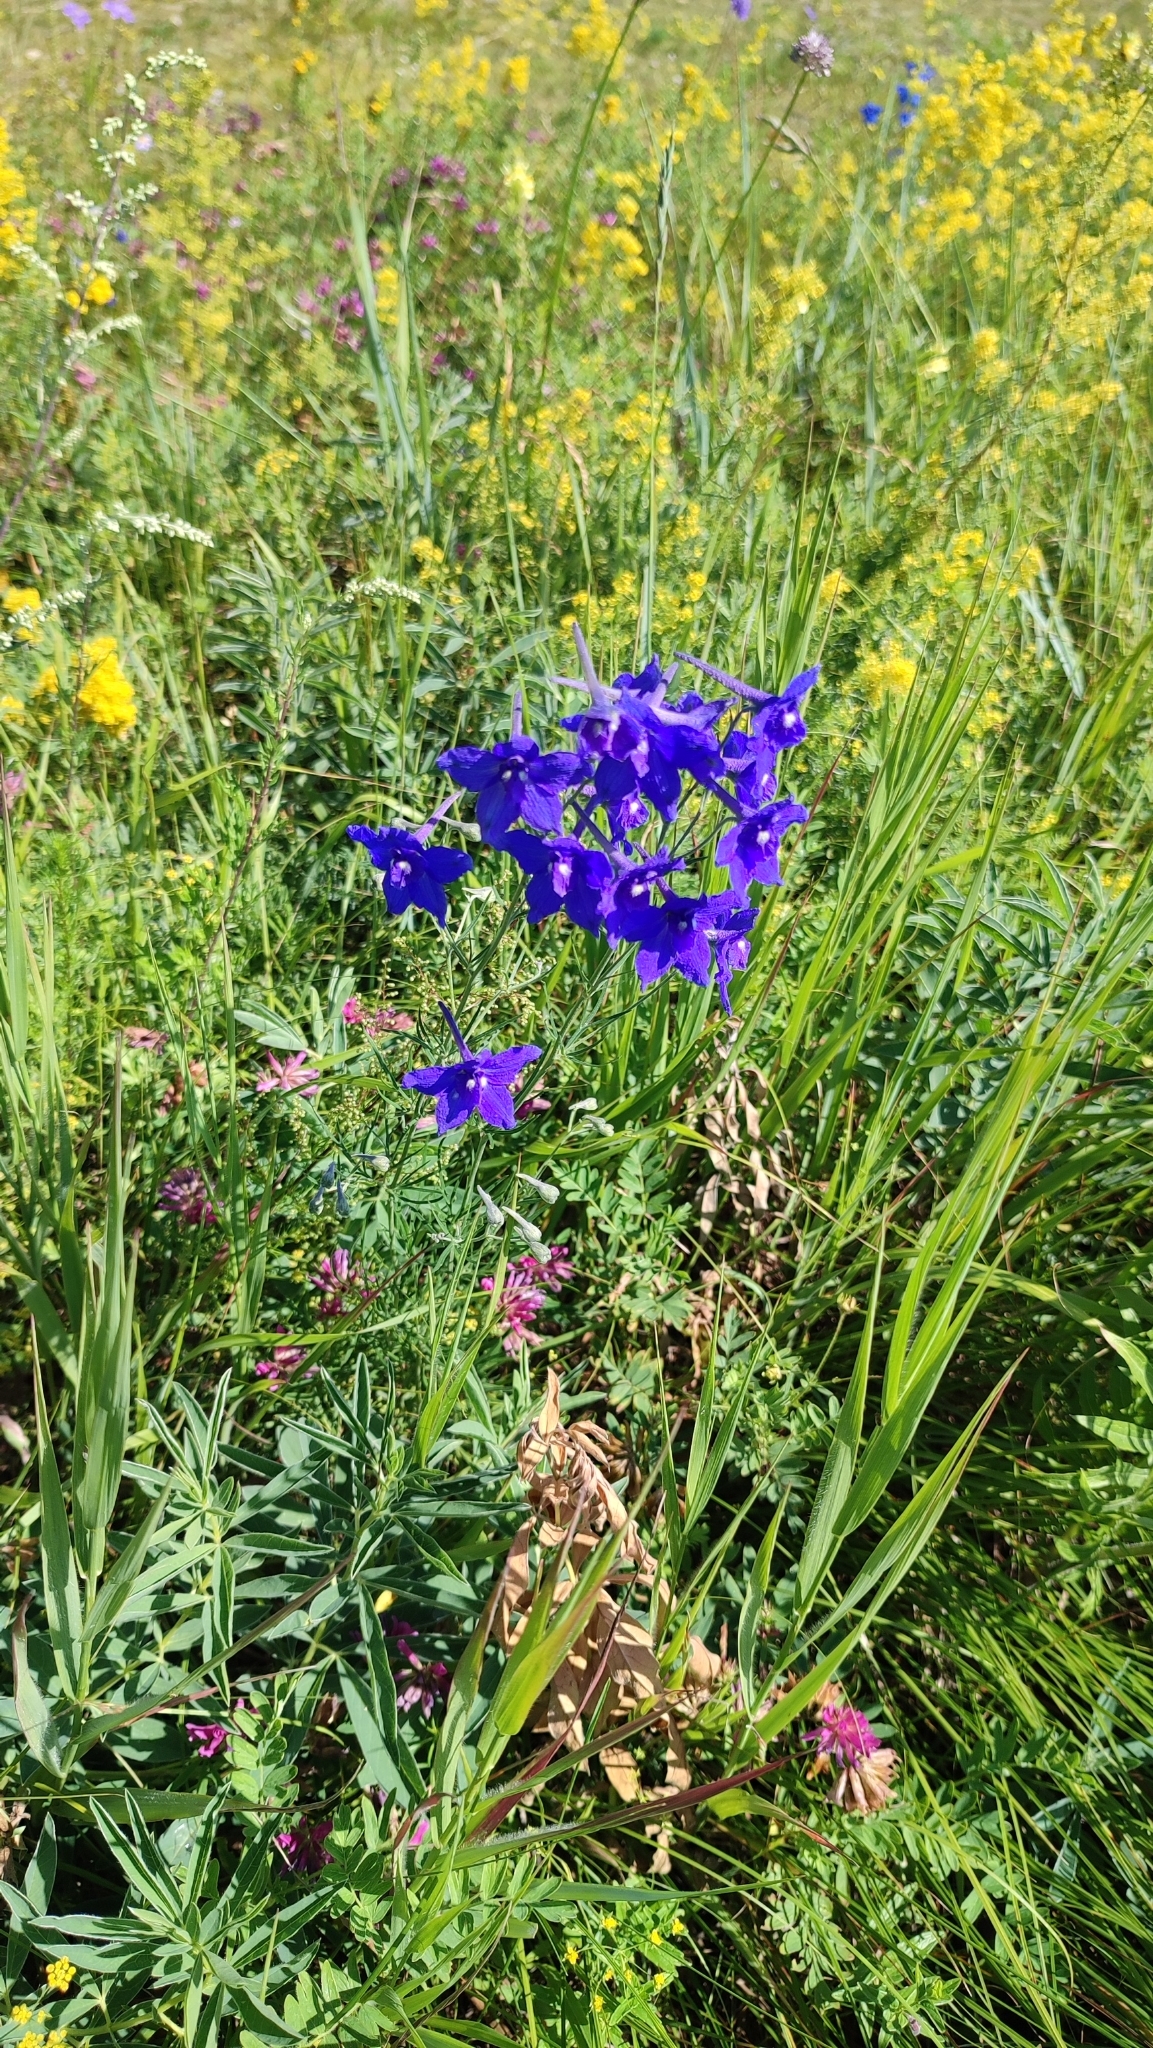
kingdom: Plantae
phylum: Tracheophyta
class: Magnoliopsida
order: Ranunculales
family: Ranunculaceae
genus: Delphinium
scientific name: Delphinium grandiflorum
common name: Siberian larkspur
